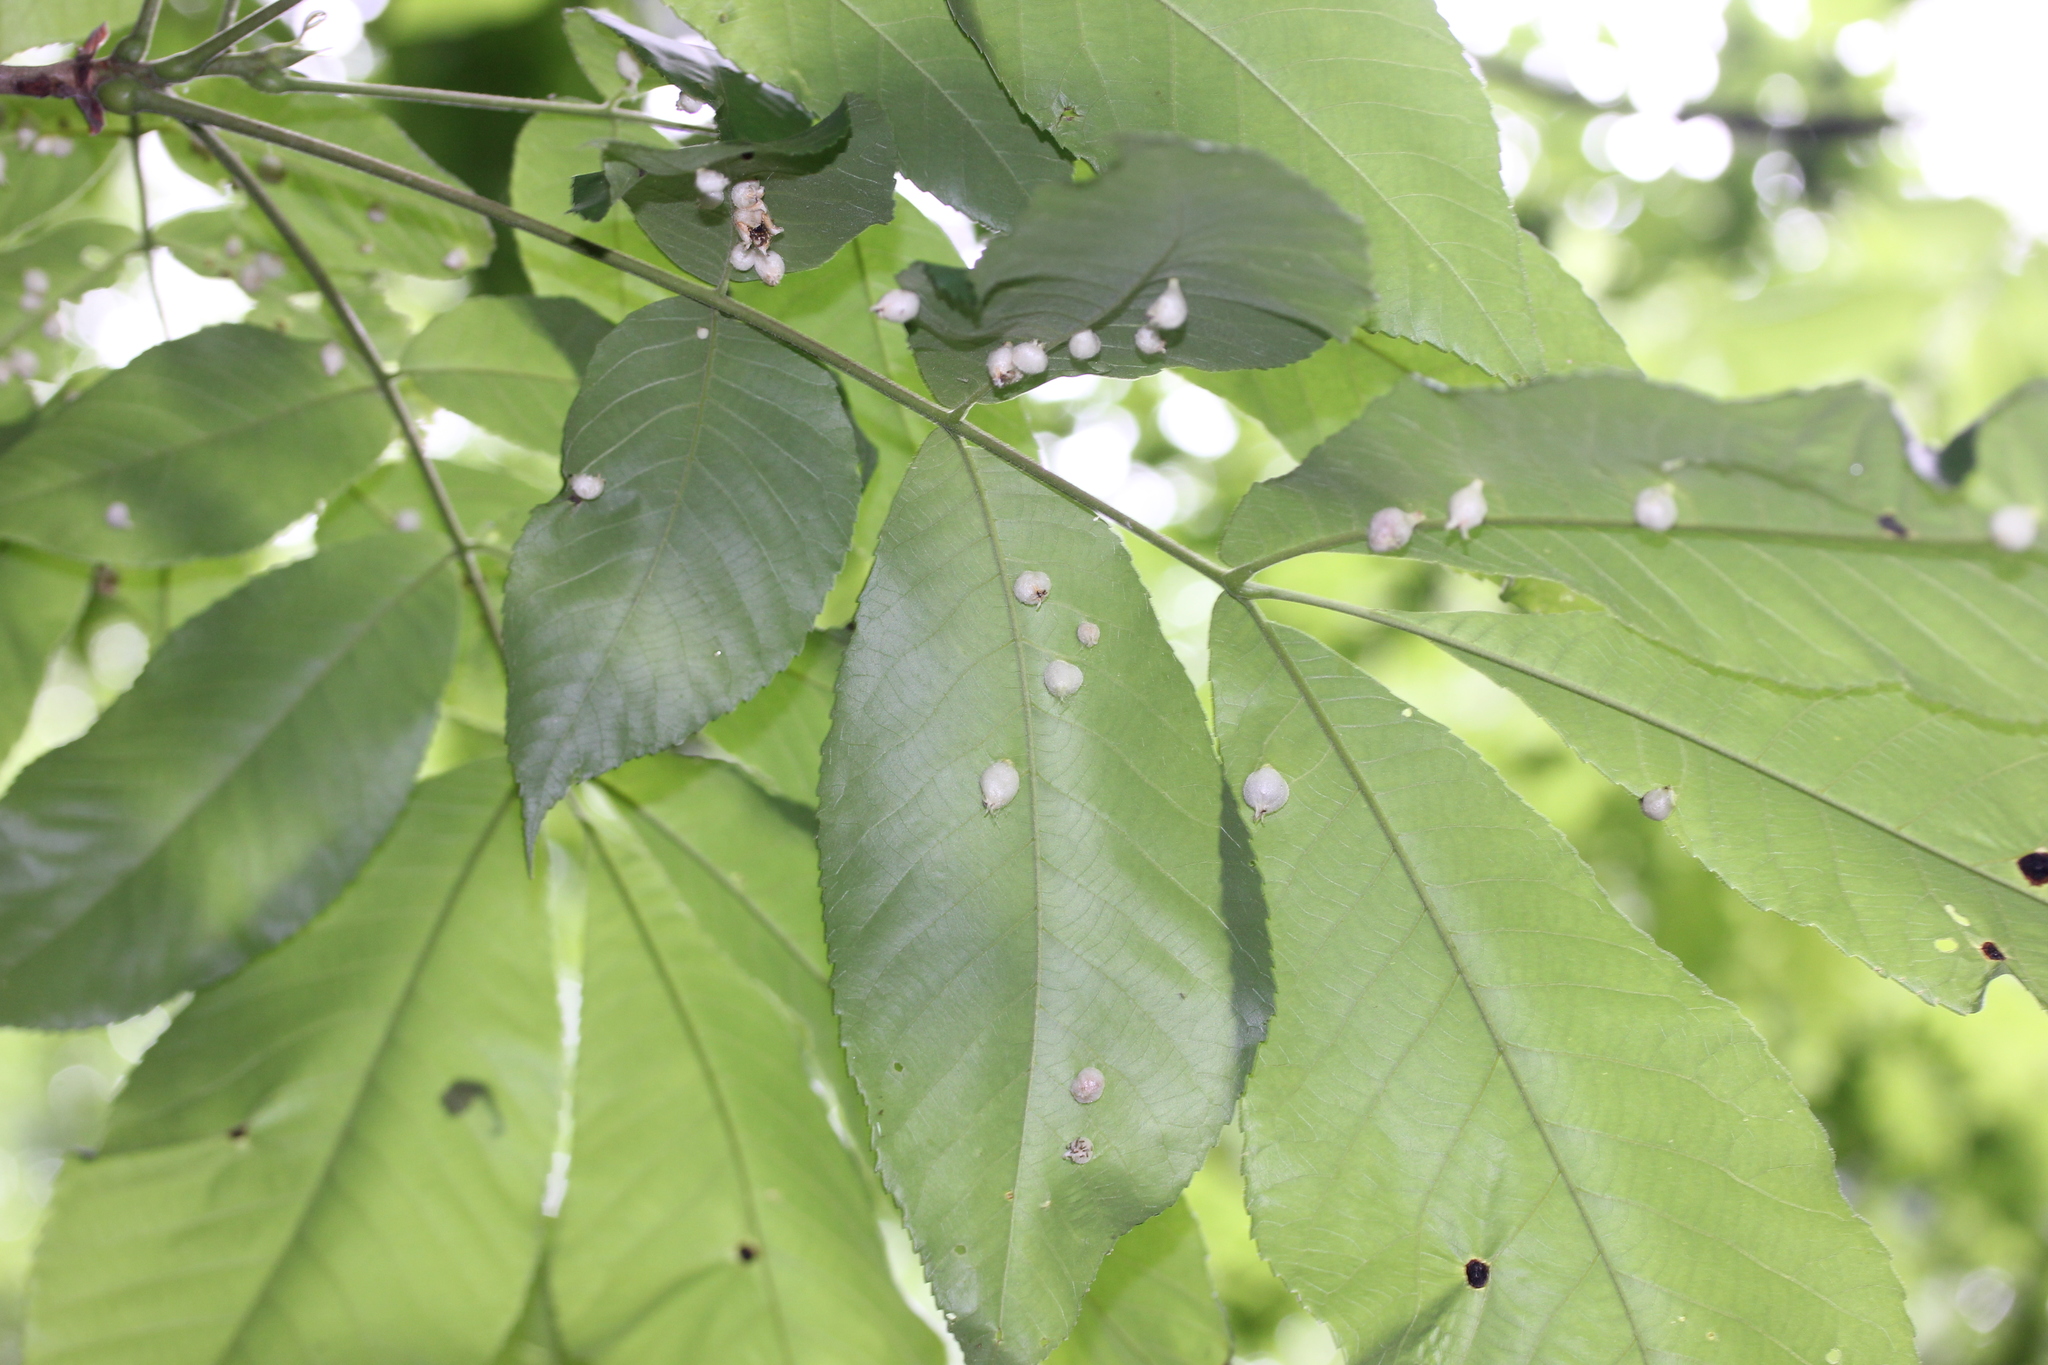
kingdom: Animalia
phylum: Arthropoda
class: Insecta
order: Hemiptera
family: Phylloxeridae
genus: Phylloxera
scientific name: Phylloxera caryaegummosa
